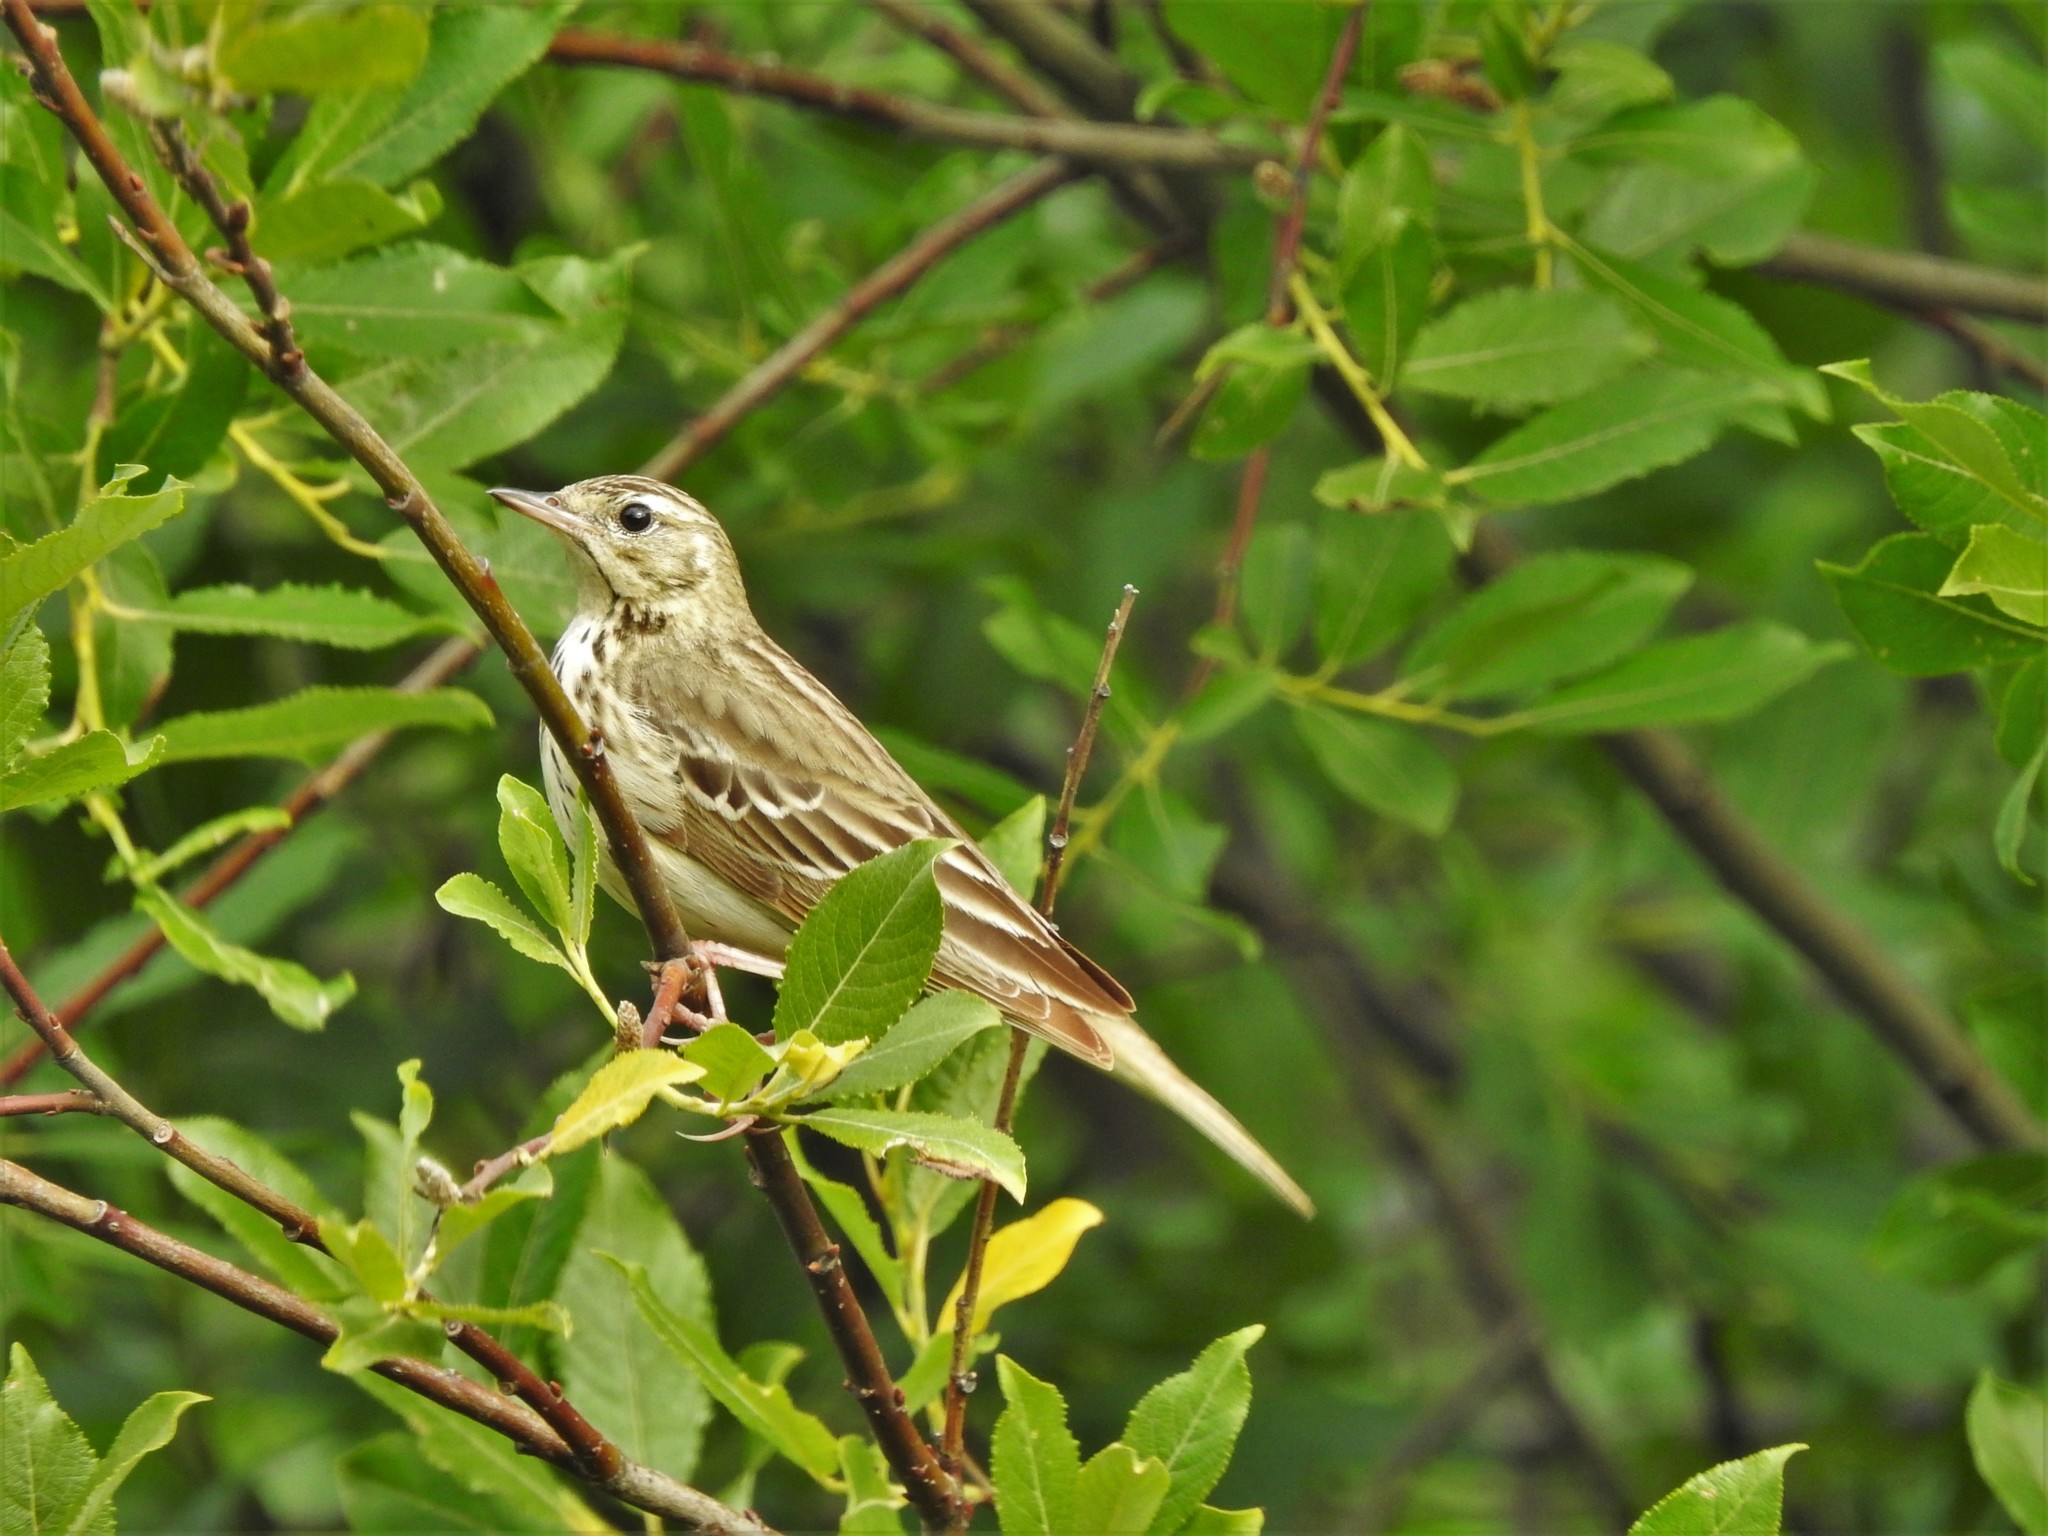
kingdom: Animalia
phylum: Chordata
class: Aves
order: Passeriformes
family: Motacillidae
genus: Anthus
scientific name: Anthus trivialis
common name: Tree pipit
